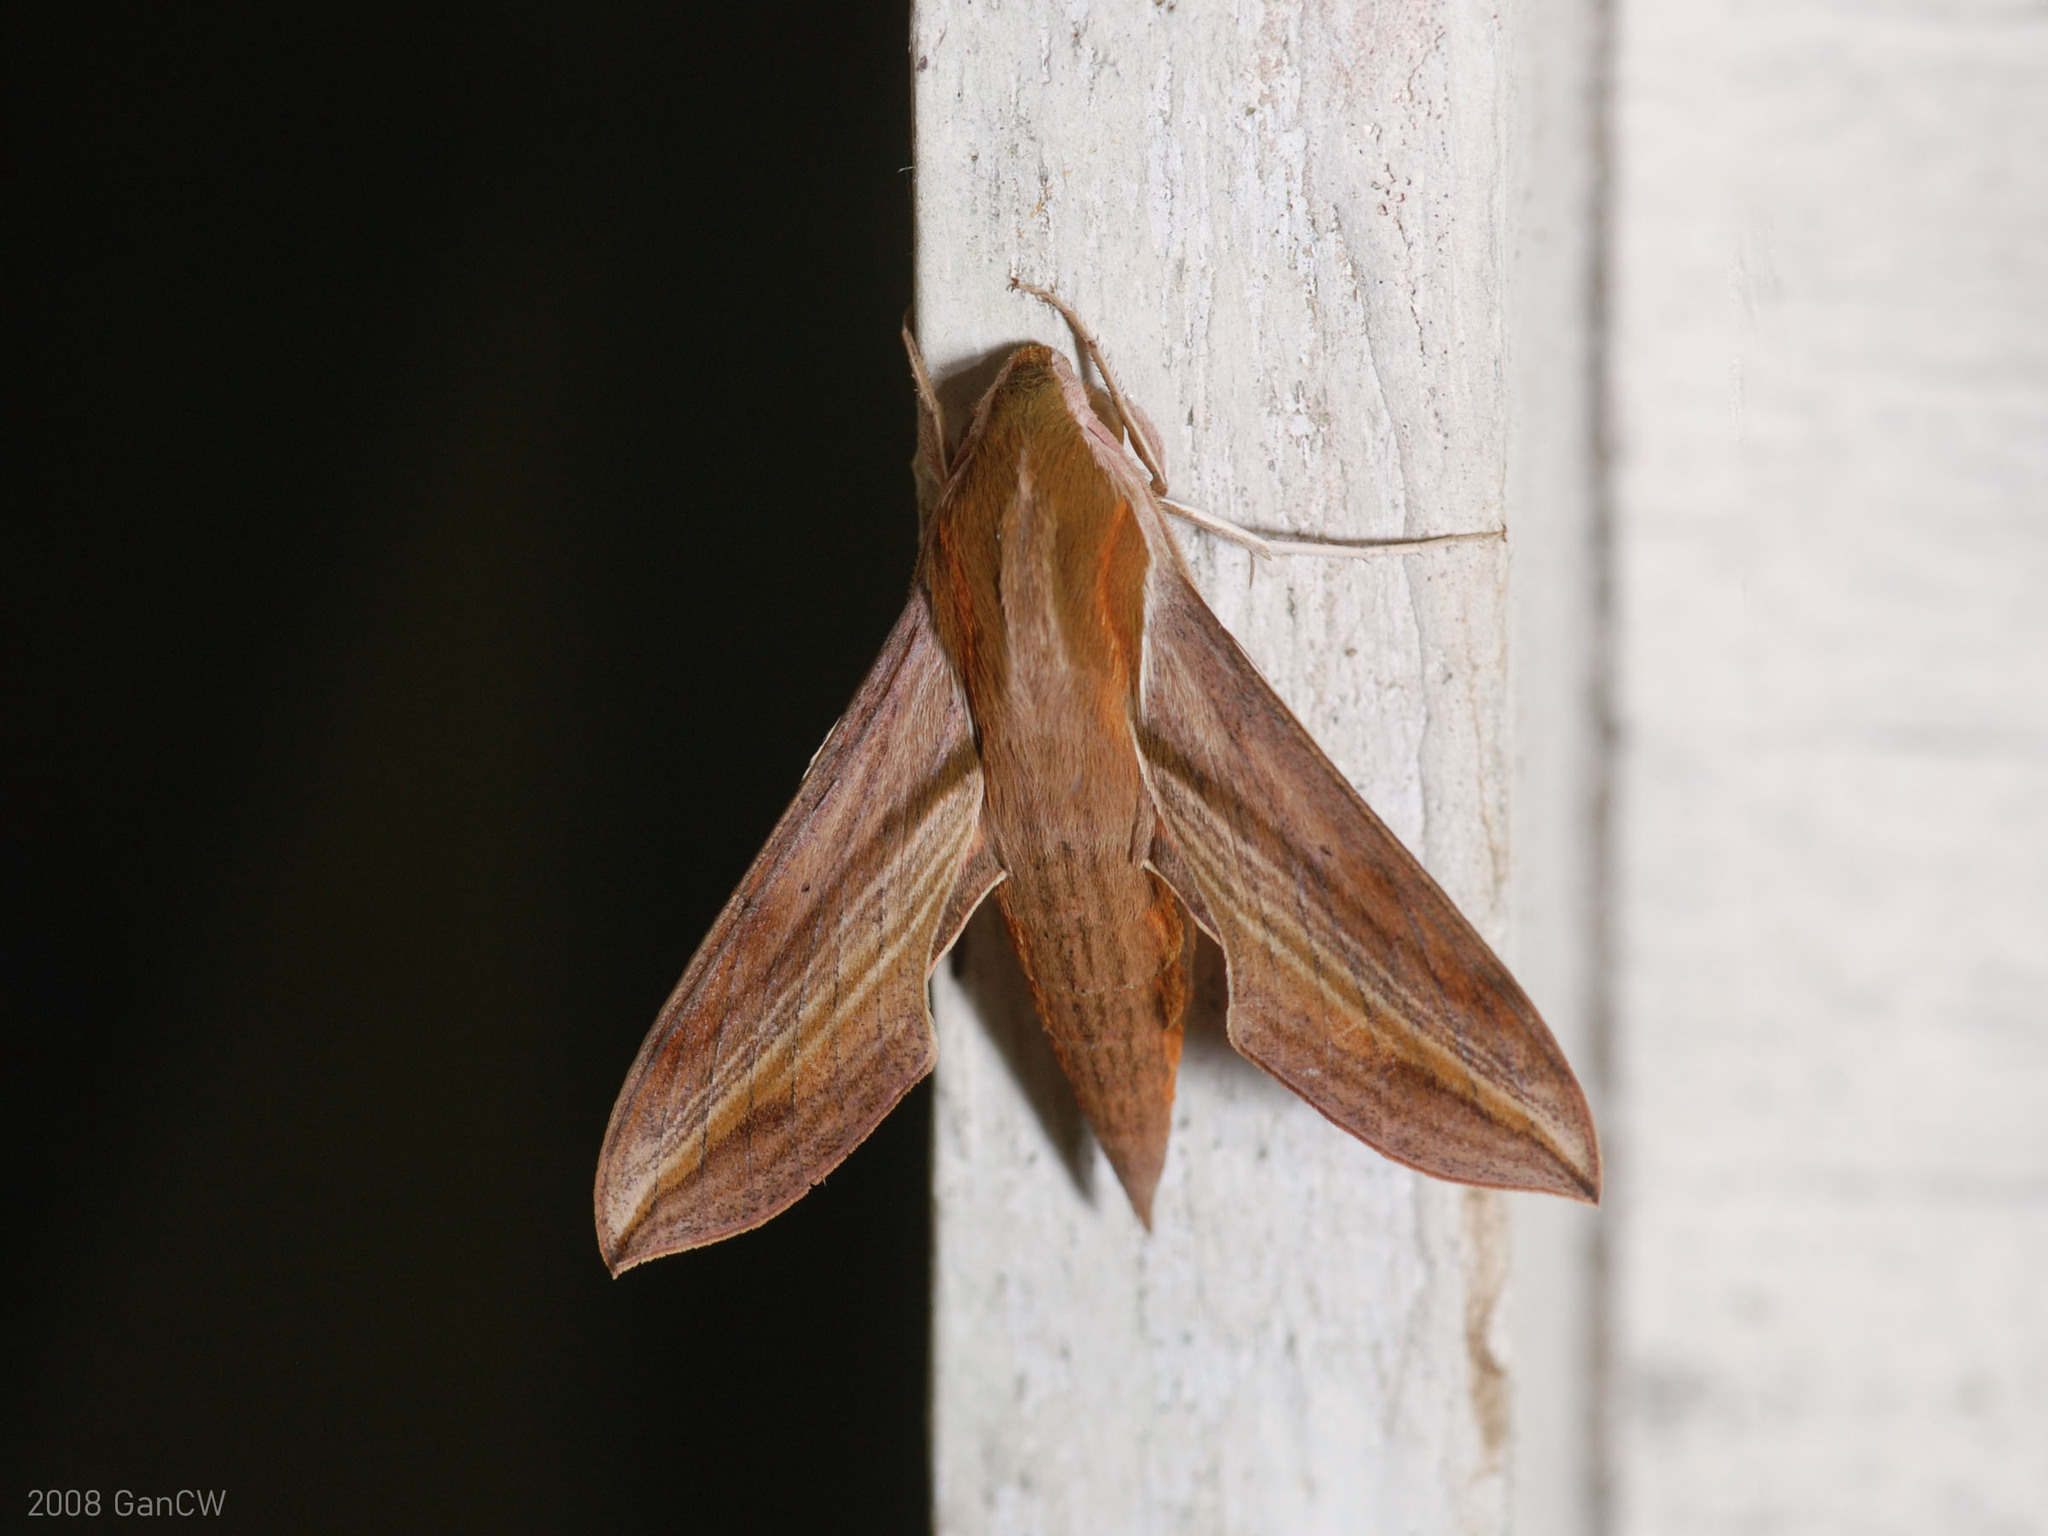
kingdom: Animalia
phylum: Arthropoda
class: Insecta
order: Lepidoptera
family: Sphingidae
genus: Hippotion
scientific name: Hippotion rosetta
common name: Vine hawk moth
